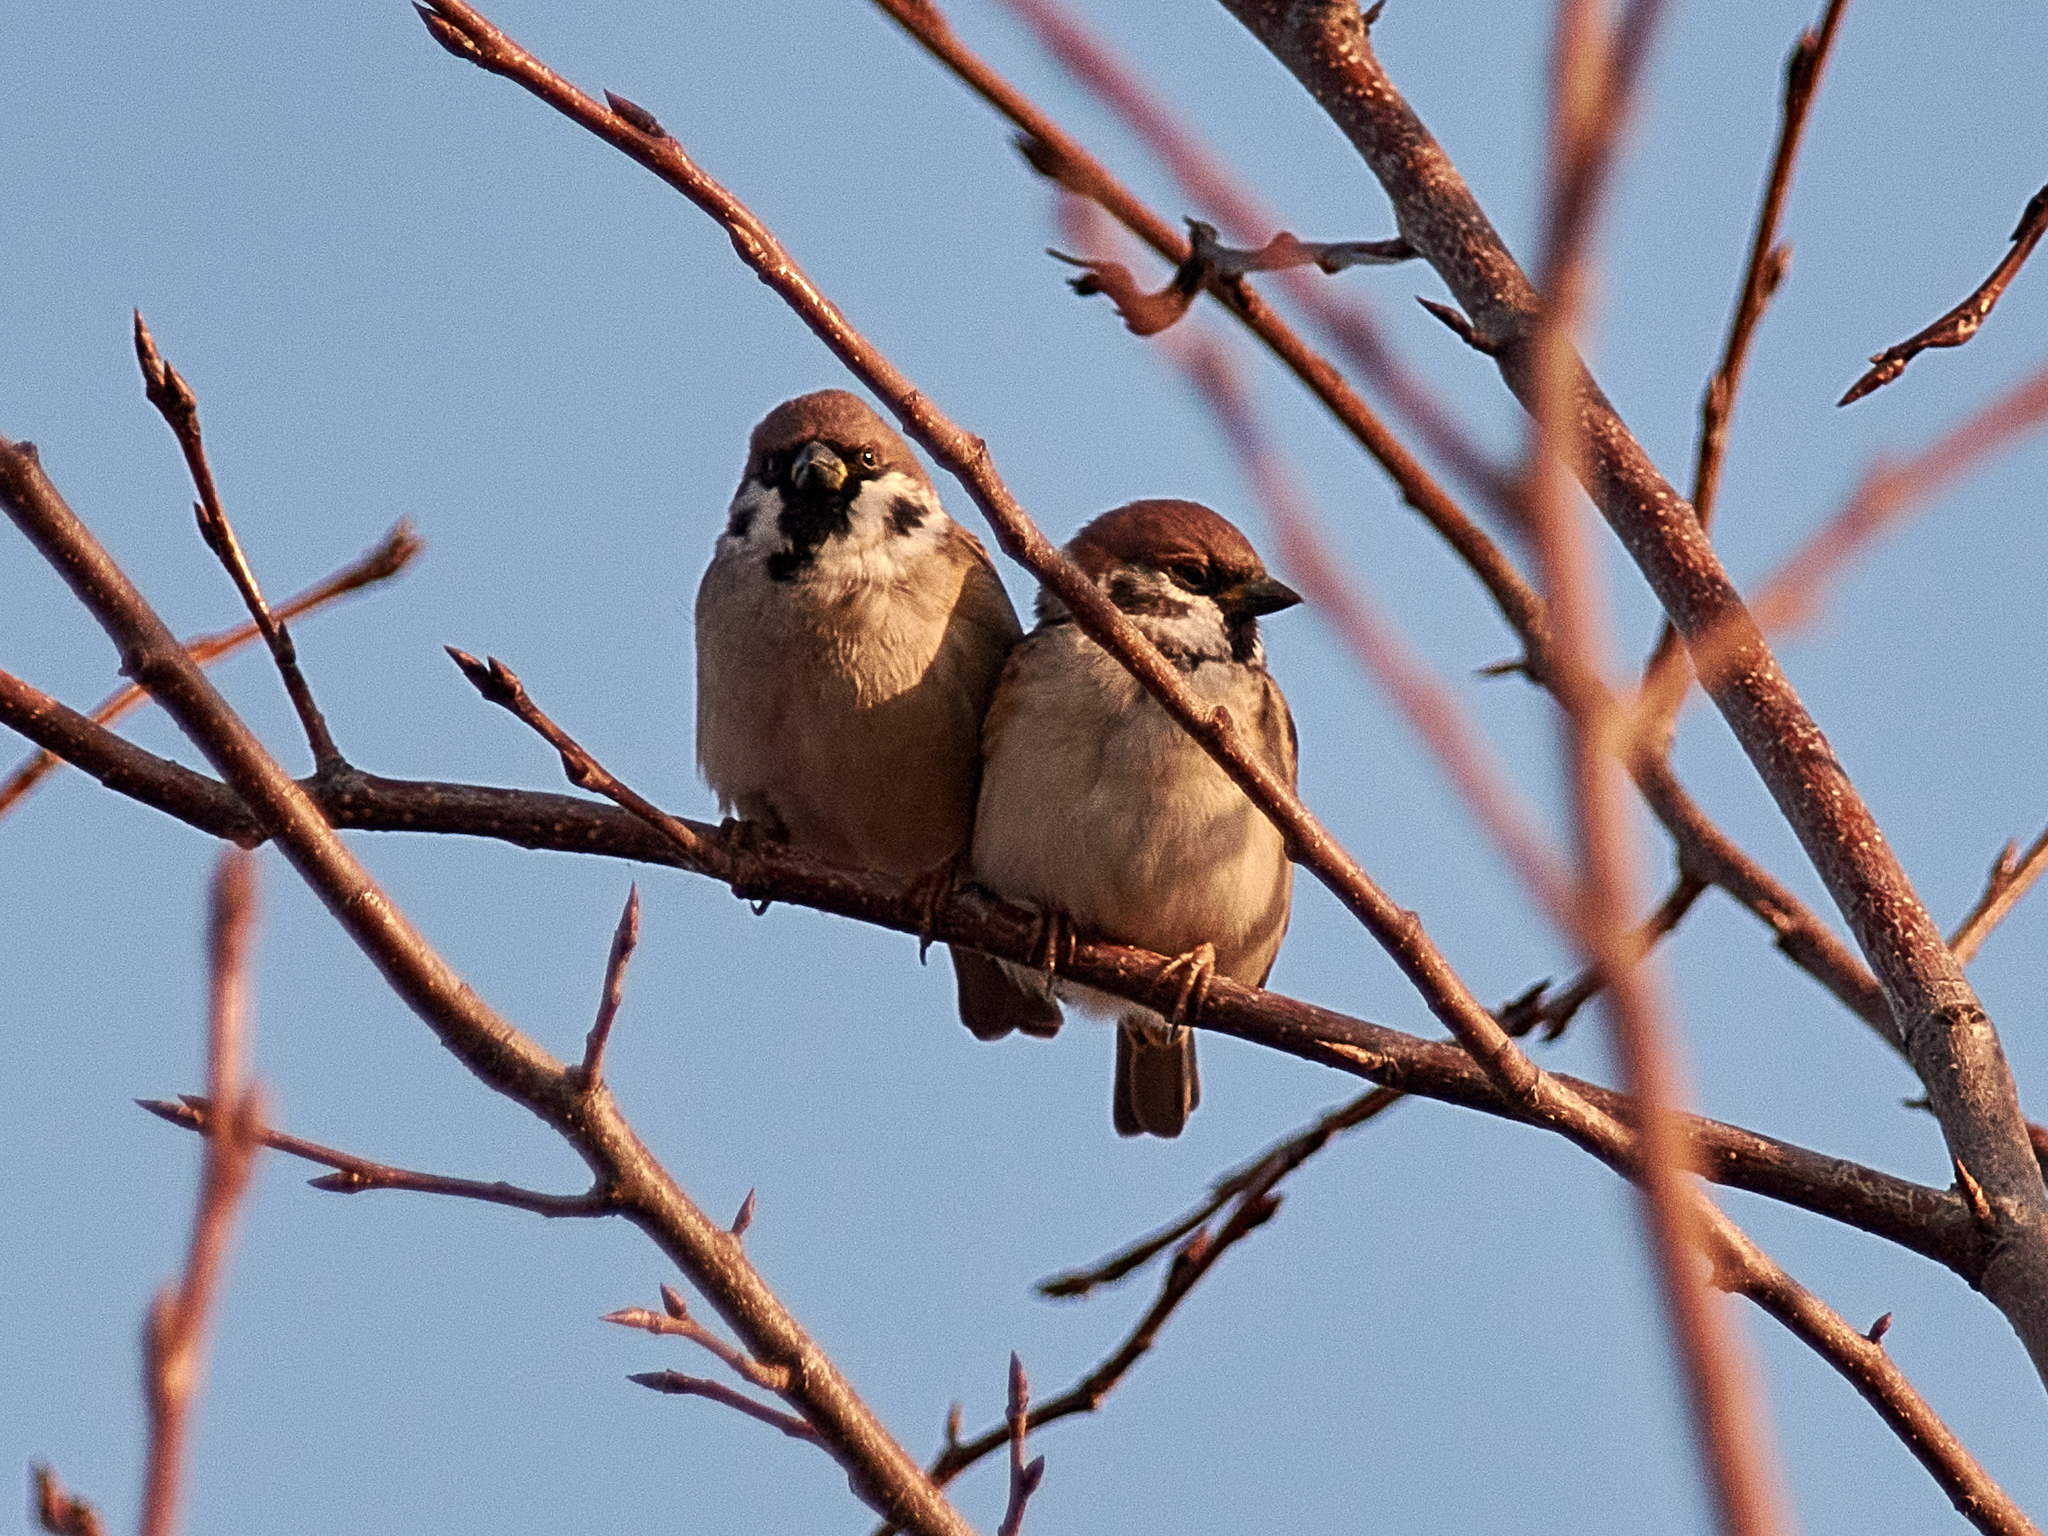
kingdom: Animalia
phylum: Chordata
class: Aves
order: Passeriformes
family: Passeridae
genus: Passer
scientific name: Passer montanus
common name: Eurasian tree sparrow
